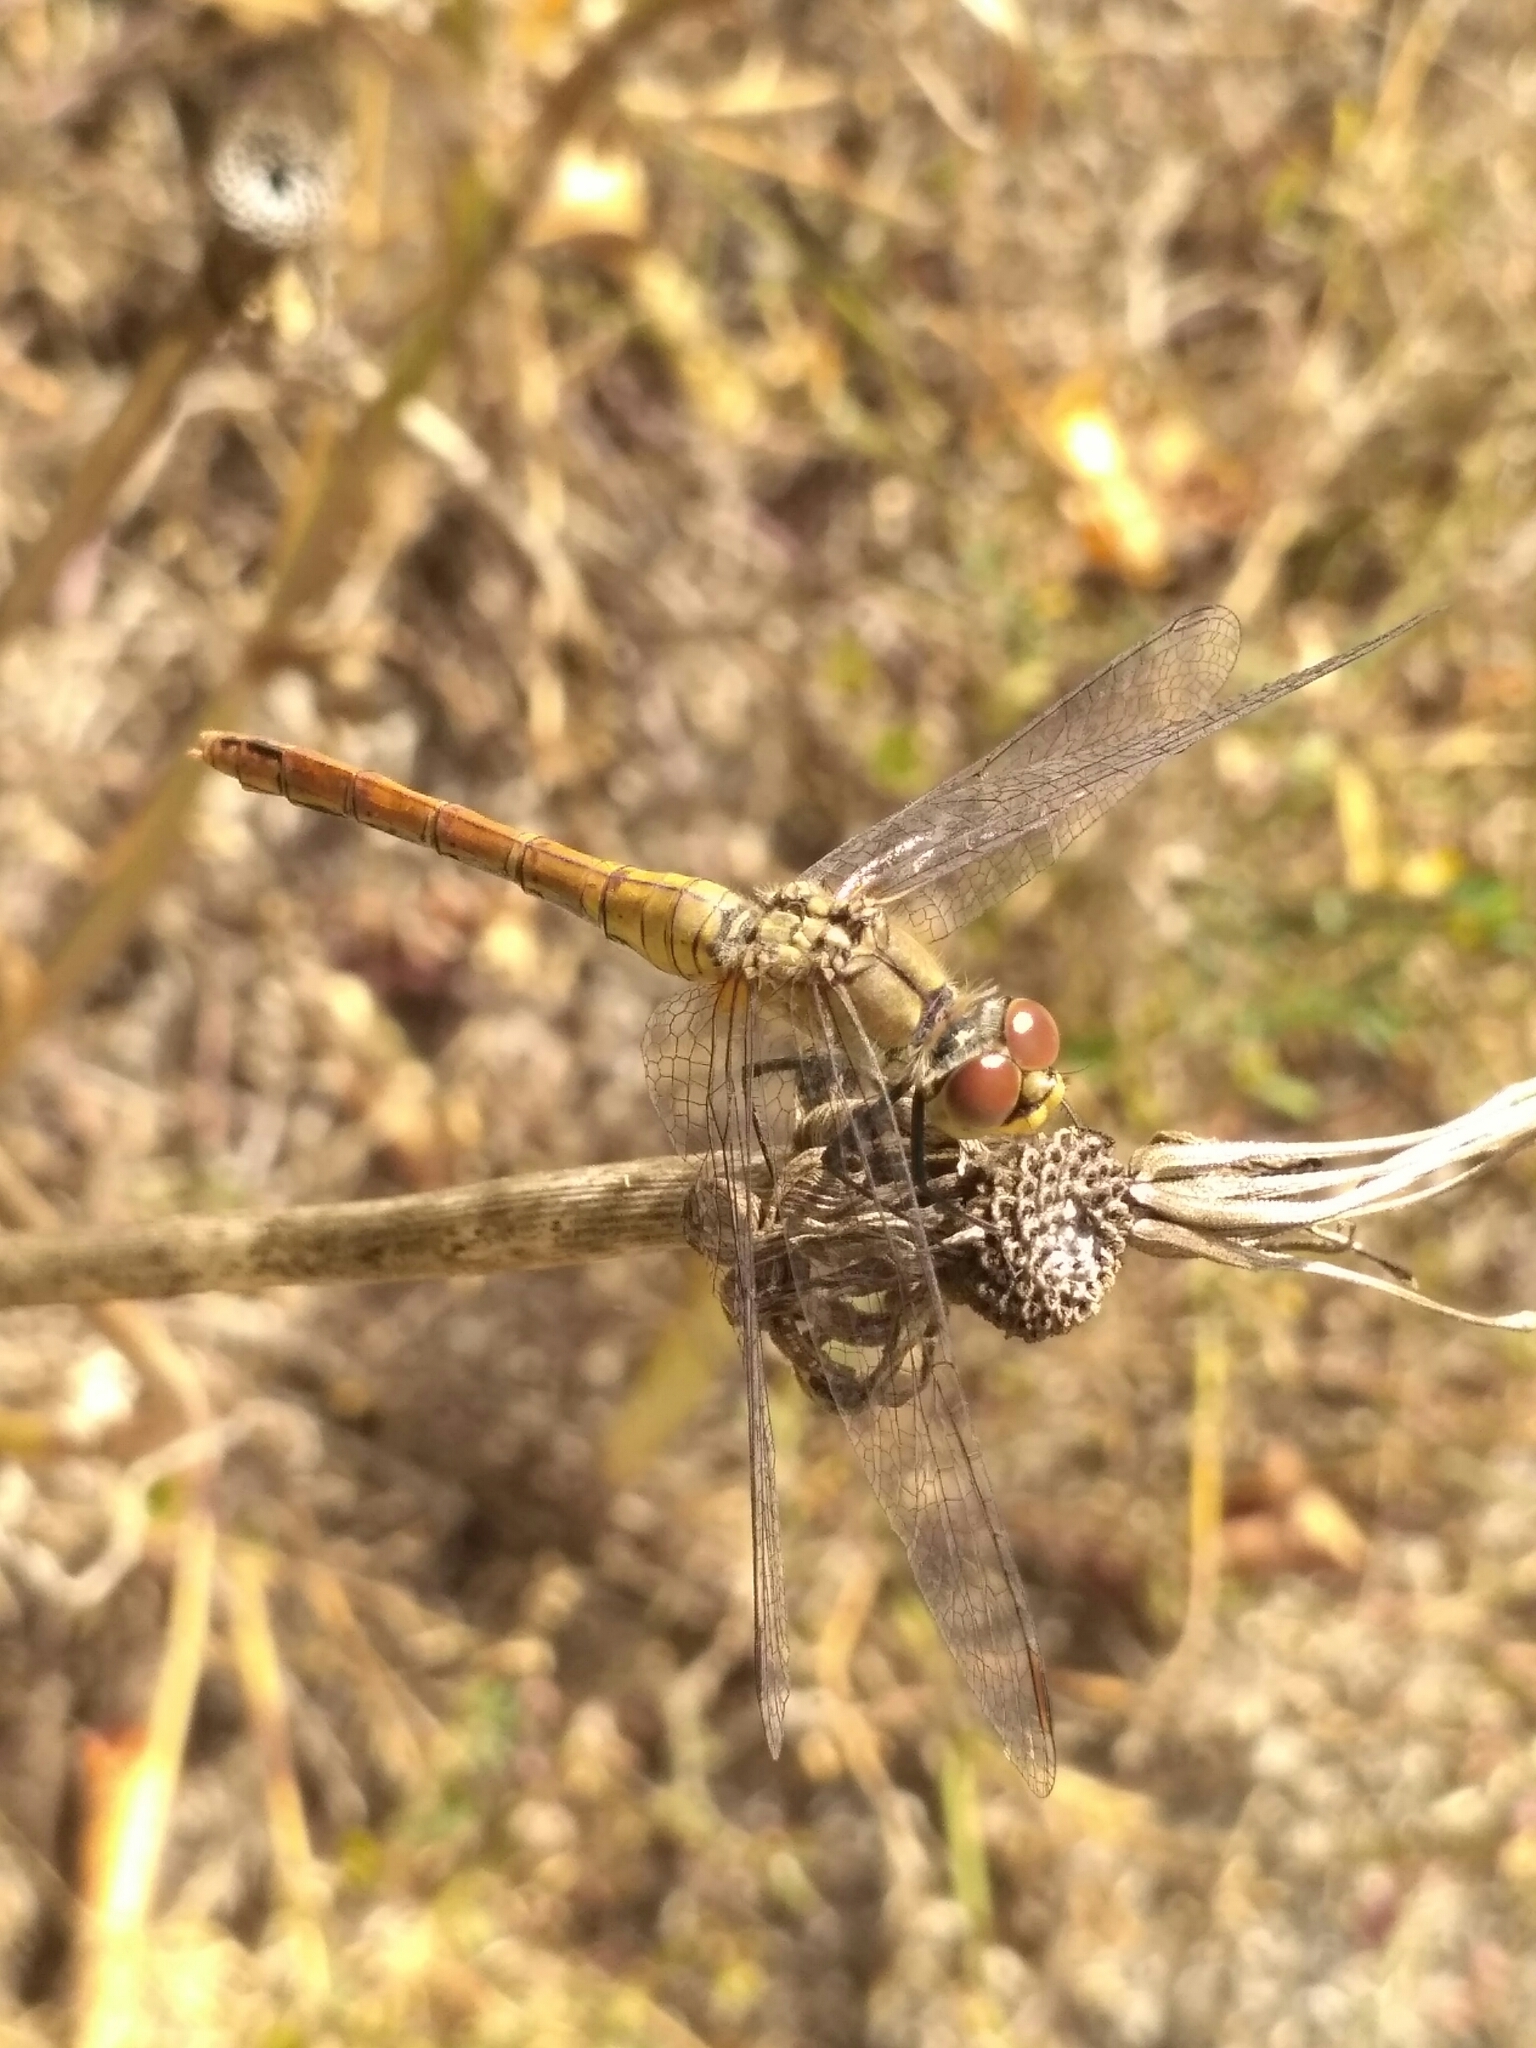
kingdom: Animalia
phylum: Arthropoda
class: Insecta
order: Odonata
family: Libellulidae
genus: Sympetrum
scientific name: Sympetrum sanguineum
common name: Ruddy darter
